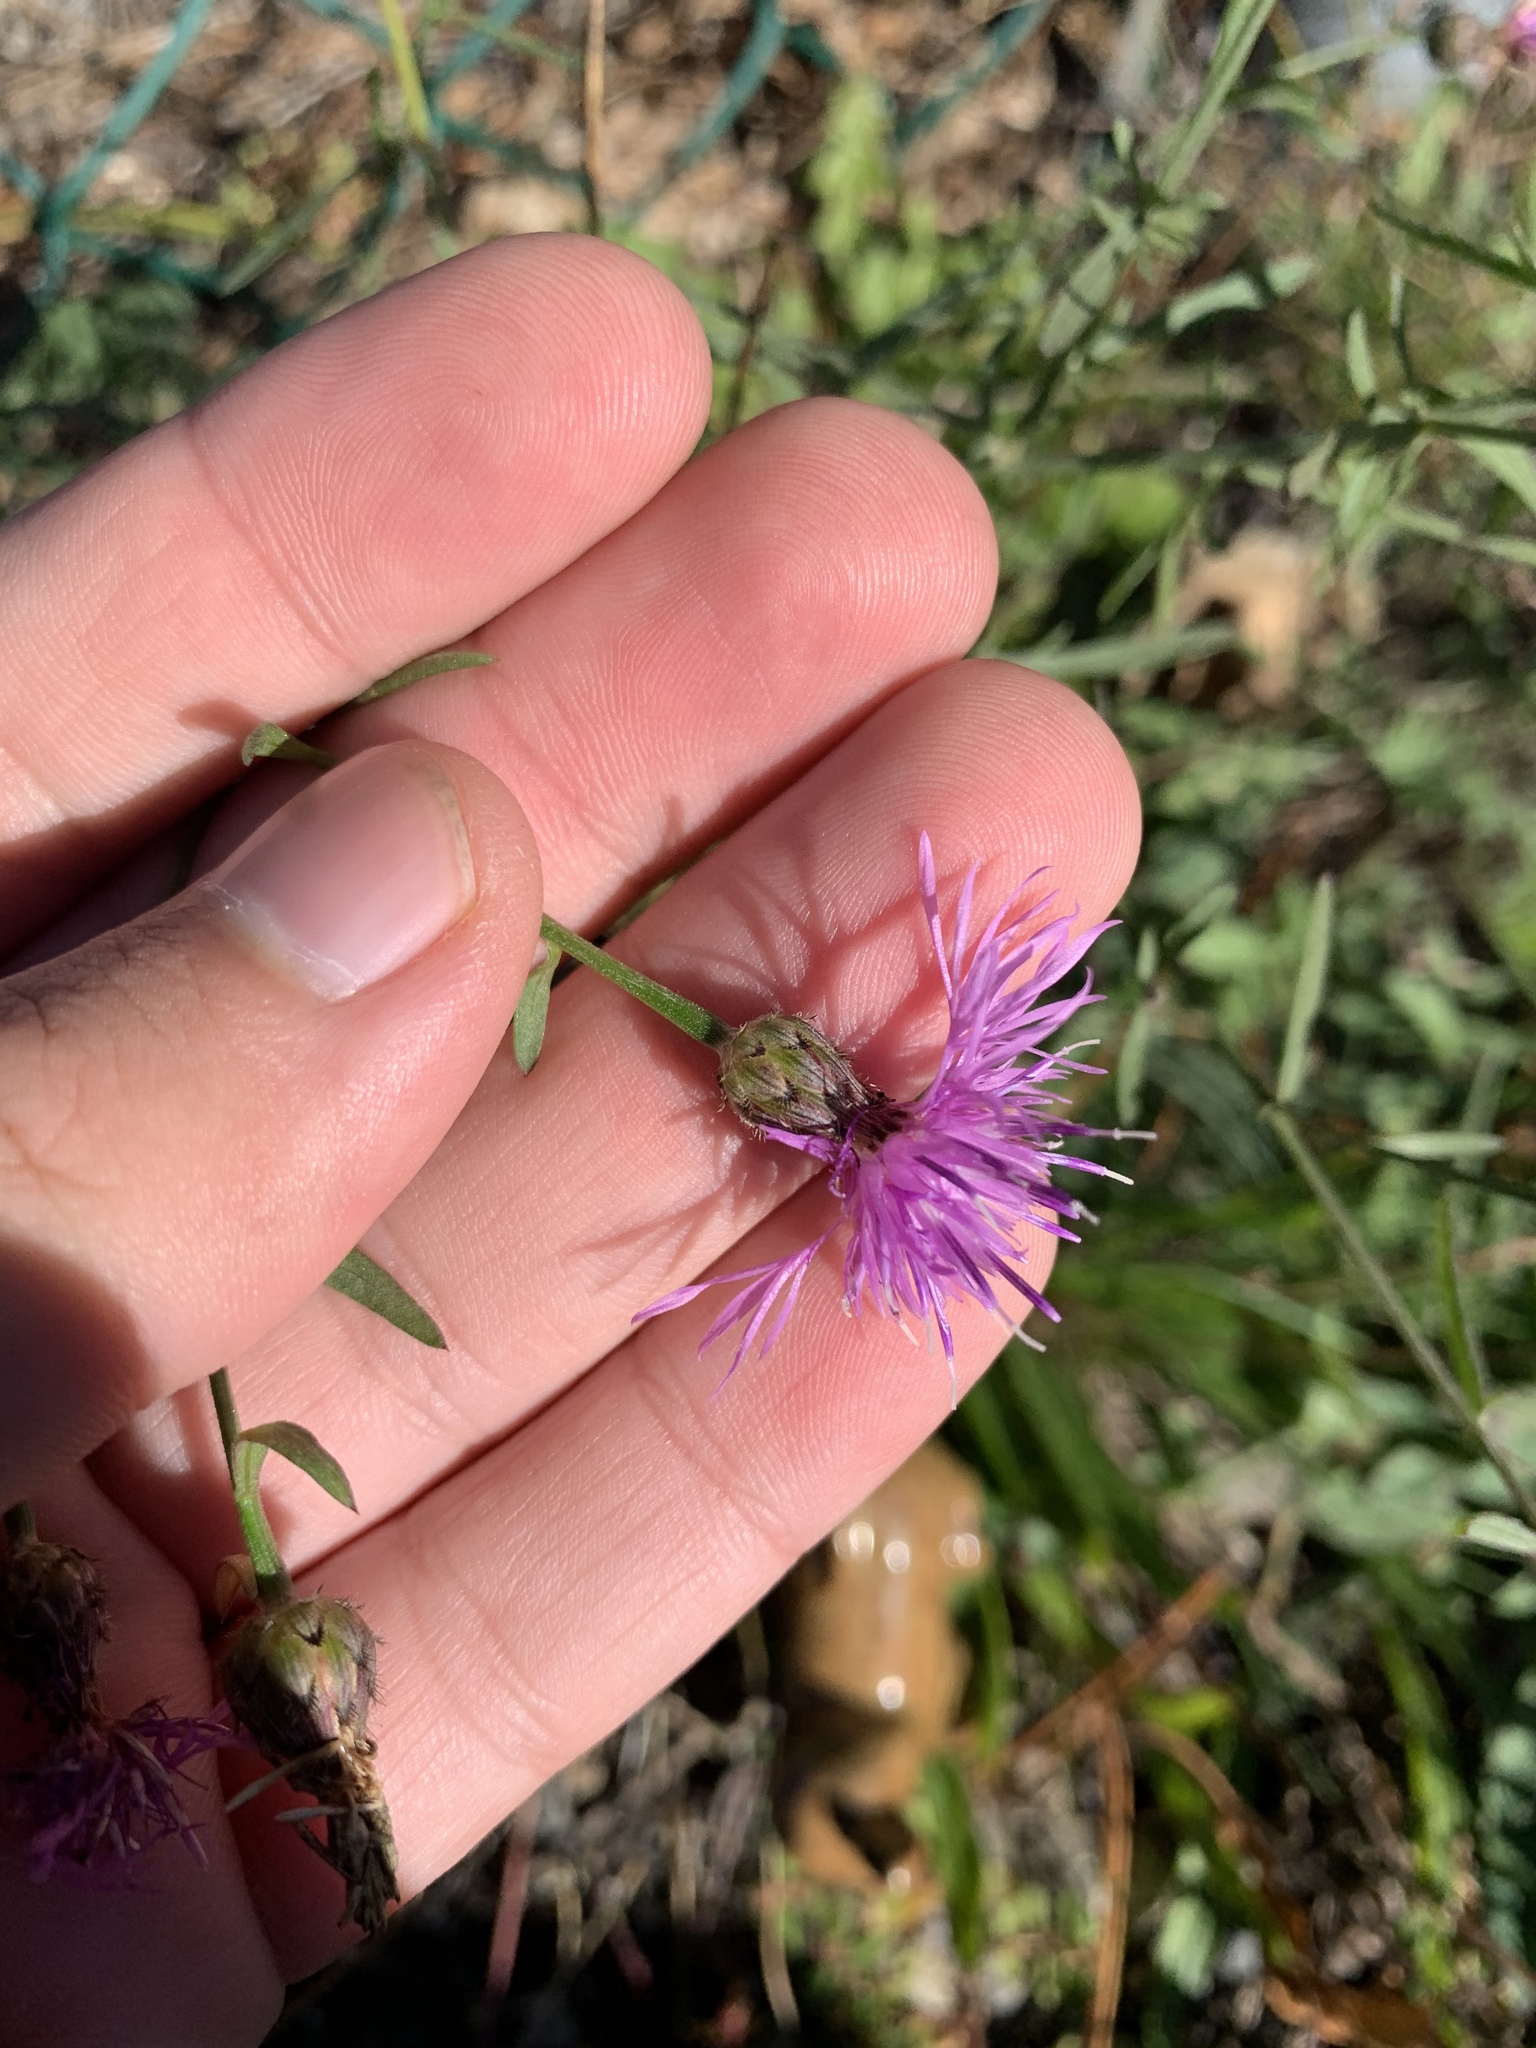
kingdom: Plantae
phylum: Tracheophyta
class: Magnoliopsida
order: Asterales
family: Asteraceae
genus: Centaurea
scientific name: Centaurea stoebe
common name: Spotted knapweed
